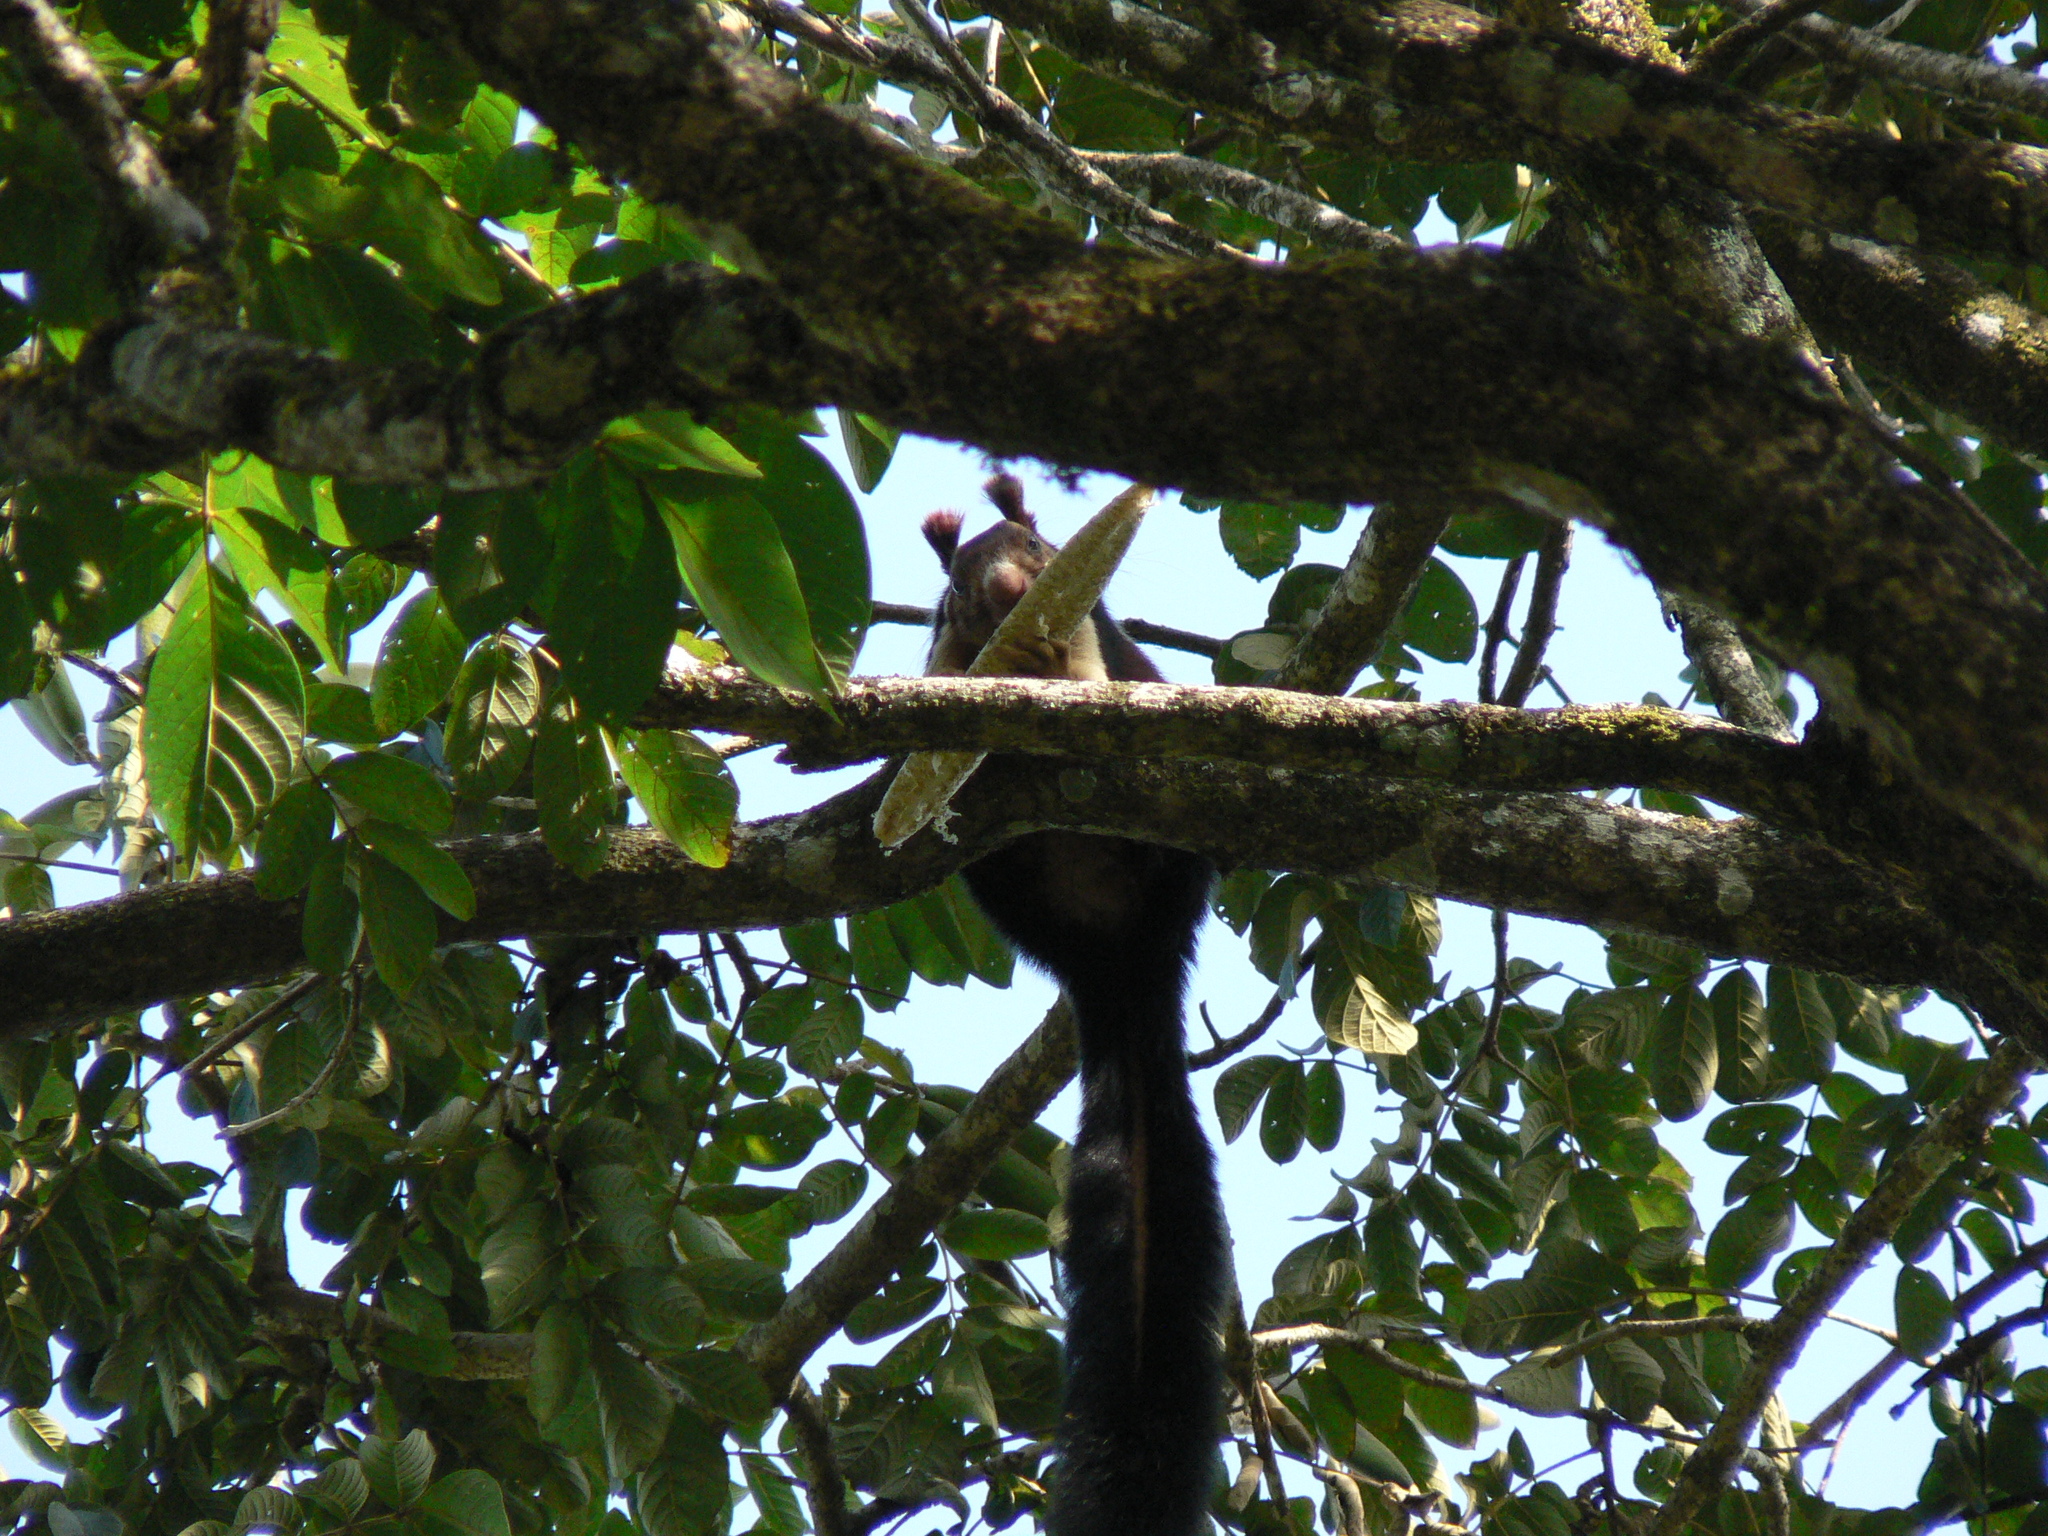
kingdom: Animalia
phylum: Chordata
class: Mammalia
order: Rodentia
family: Sciuridae
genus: Ratufa
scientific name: Ratufa indica
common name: Indian giant squirrel
